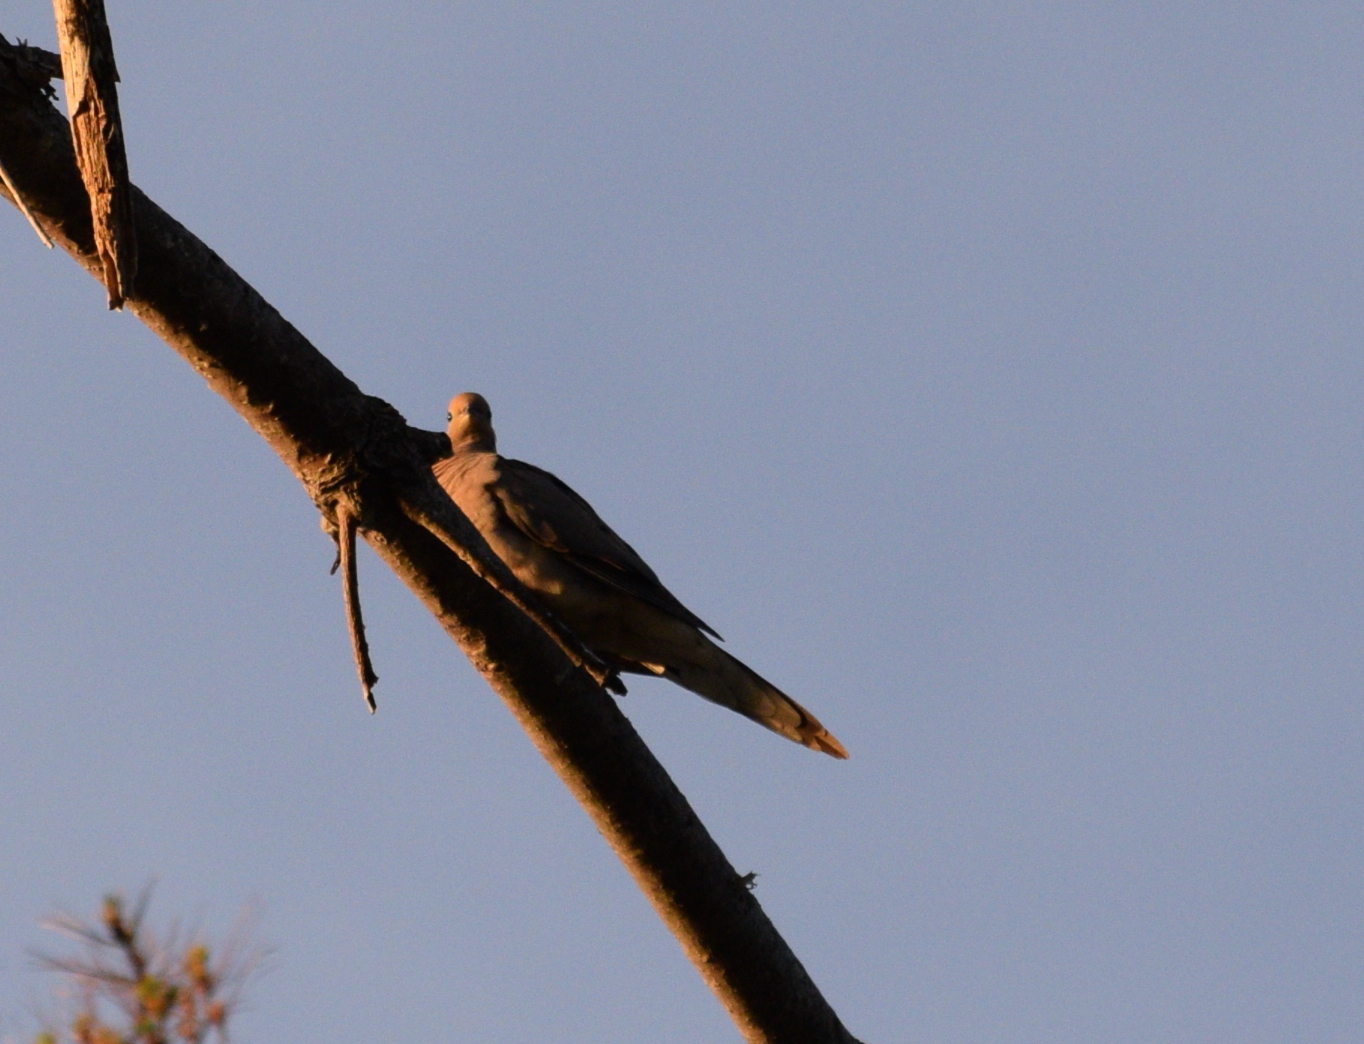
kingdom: Animalia
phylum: Chordata
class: Aves
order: Columbiformes
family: Columbidae
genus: Zenaida
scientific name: Zenaida macroura
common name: Mourning dove
